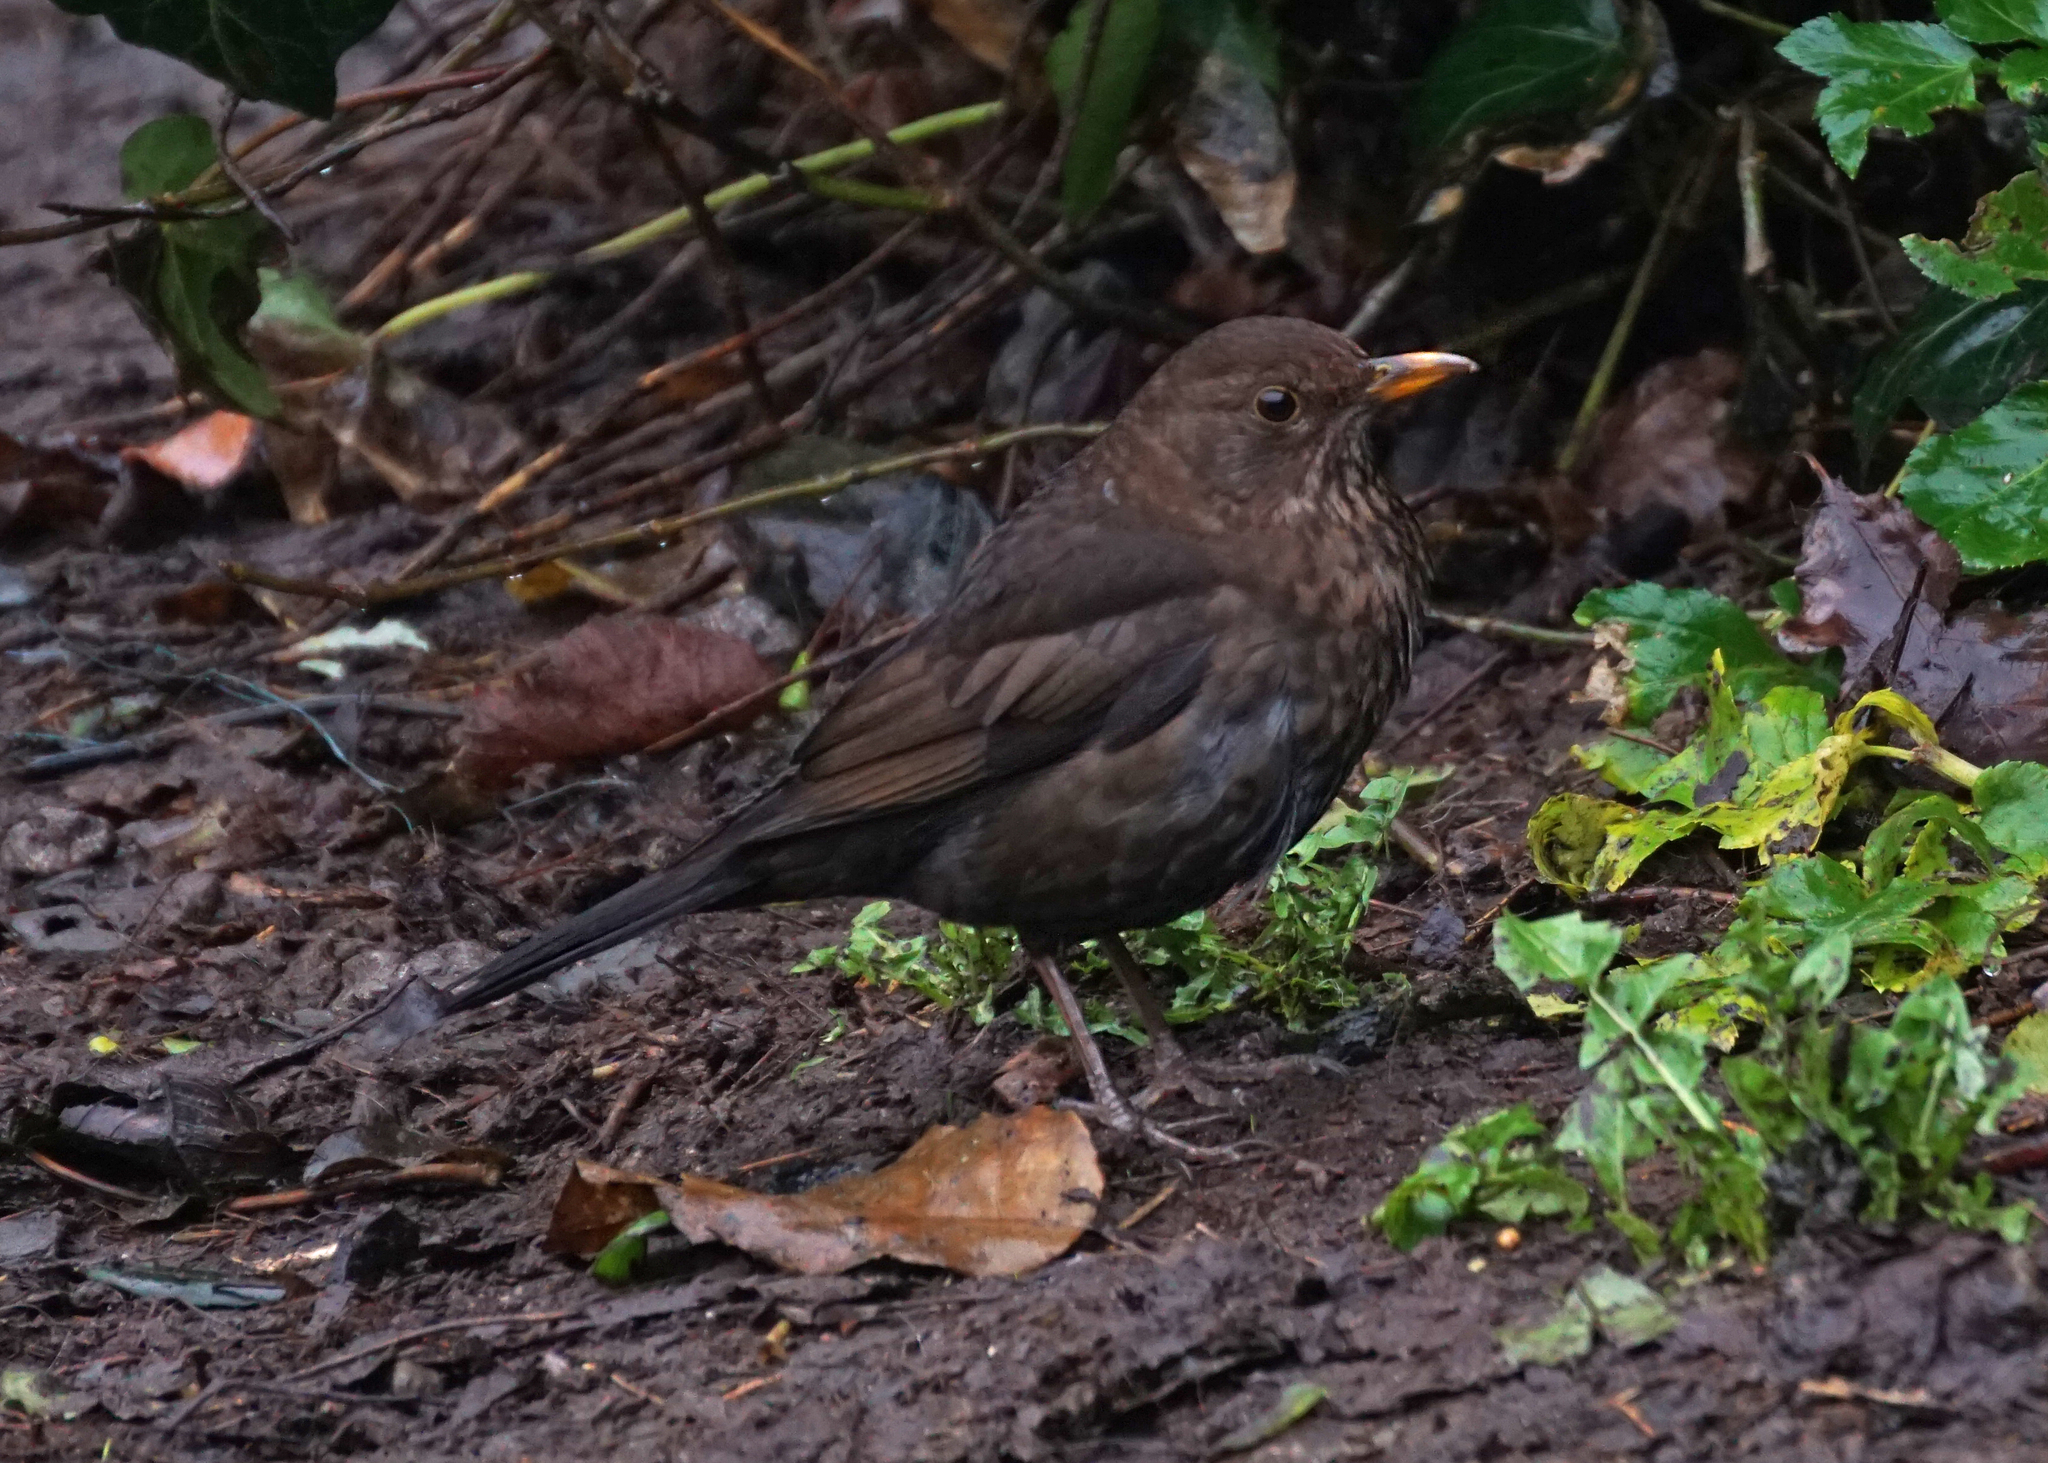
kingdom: Animalia
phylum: Chordata
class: Aves
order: Passeriformes
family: Turdidae
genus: Turdus
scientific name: Turdus merula
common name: Common blackbird
